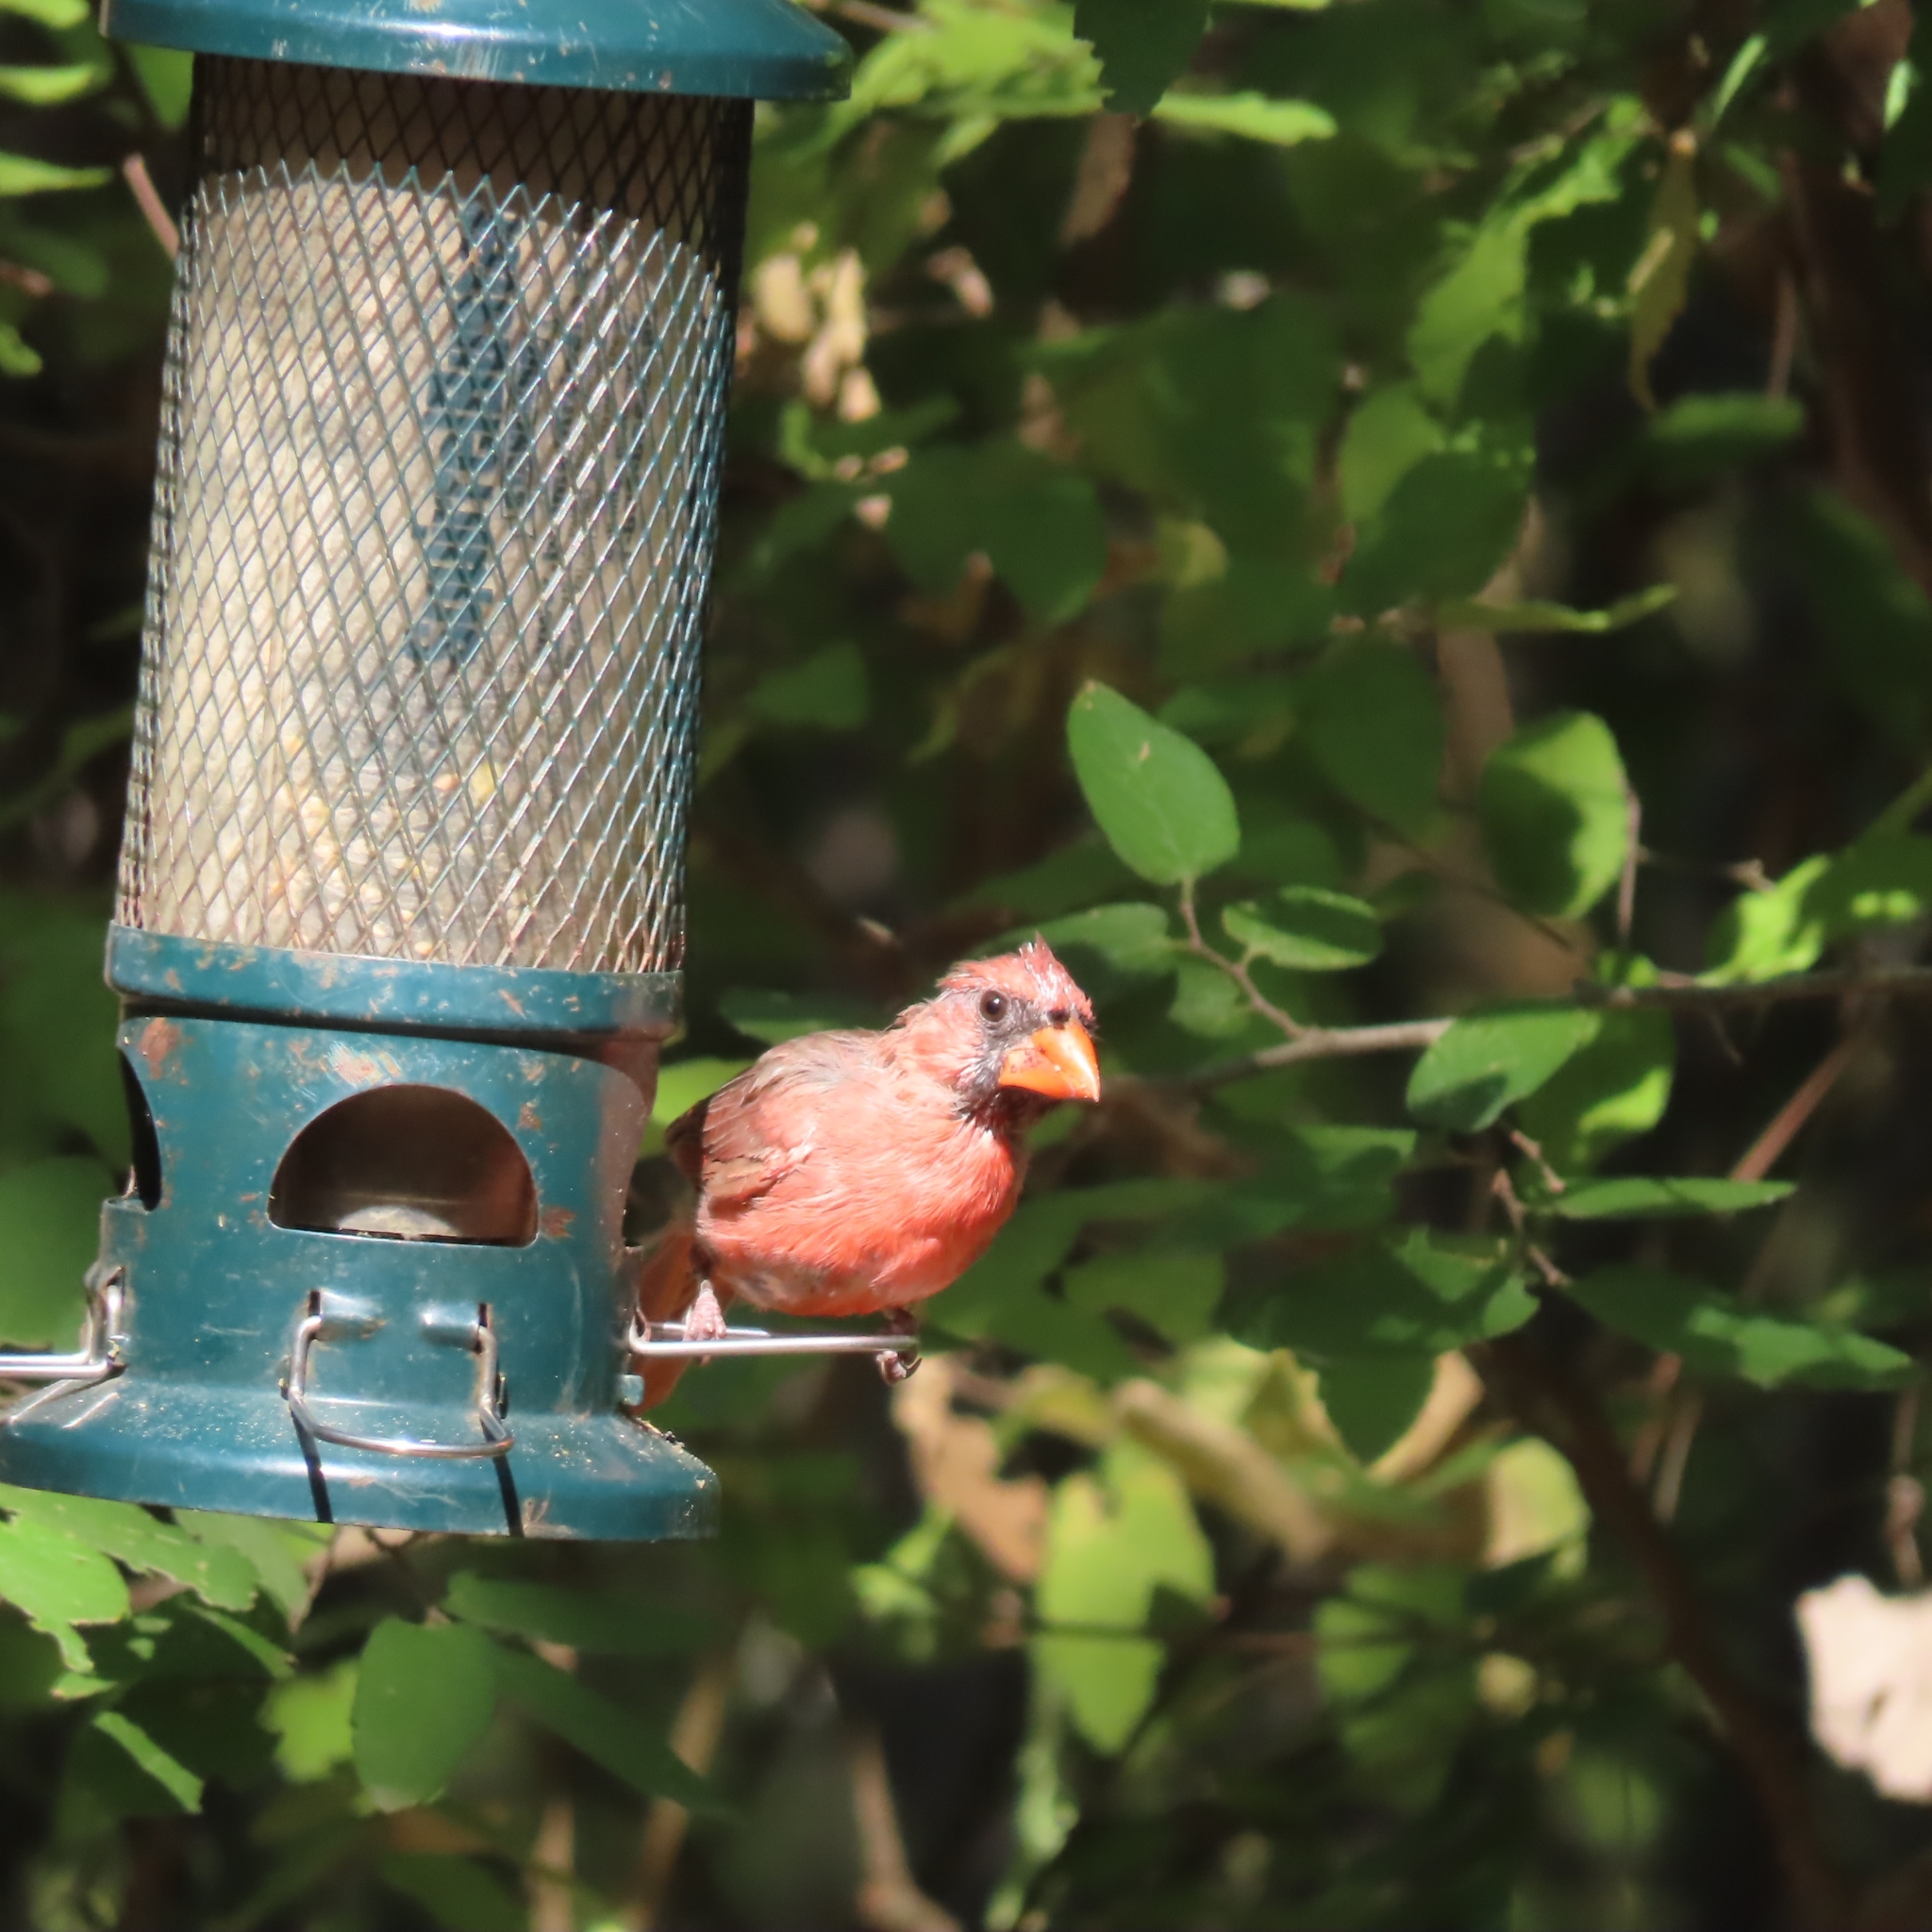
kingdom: Animalia
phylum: Chordata
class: Aves
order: Passeriformes
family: Cardinalidae
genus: Cardinalis
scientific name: Cardinalis cardinalis
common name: Northern cardinal
